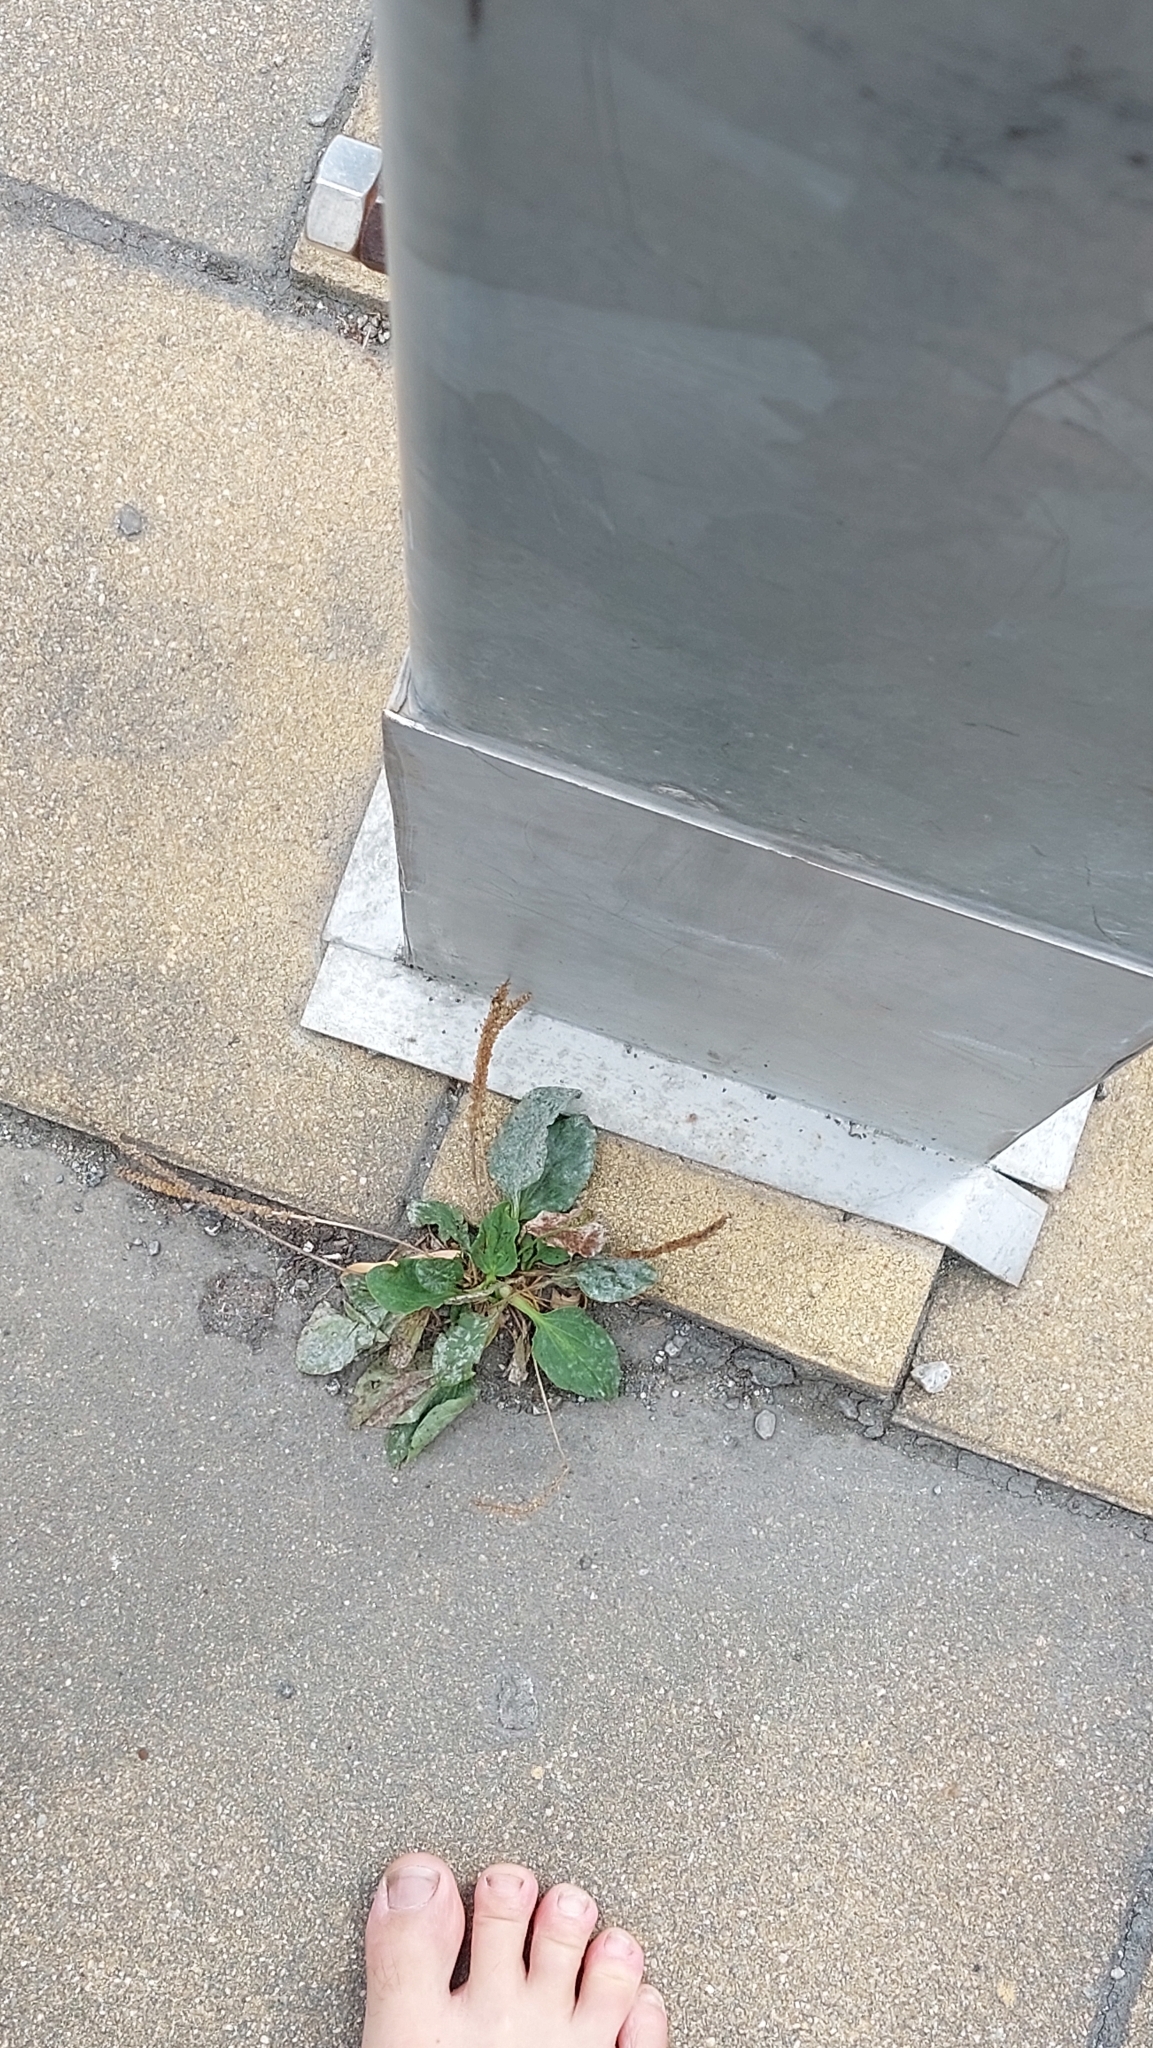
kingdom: Plantae
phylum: Tracheophyta
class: Magnoliopsida
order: Lamiales
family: Plantaginaceae
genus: Plantago
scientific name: Plantago major
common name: Common plantain
